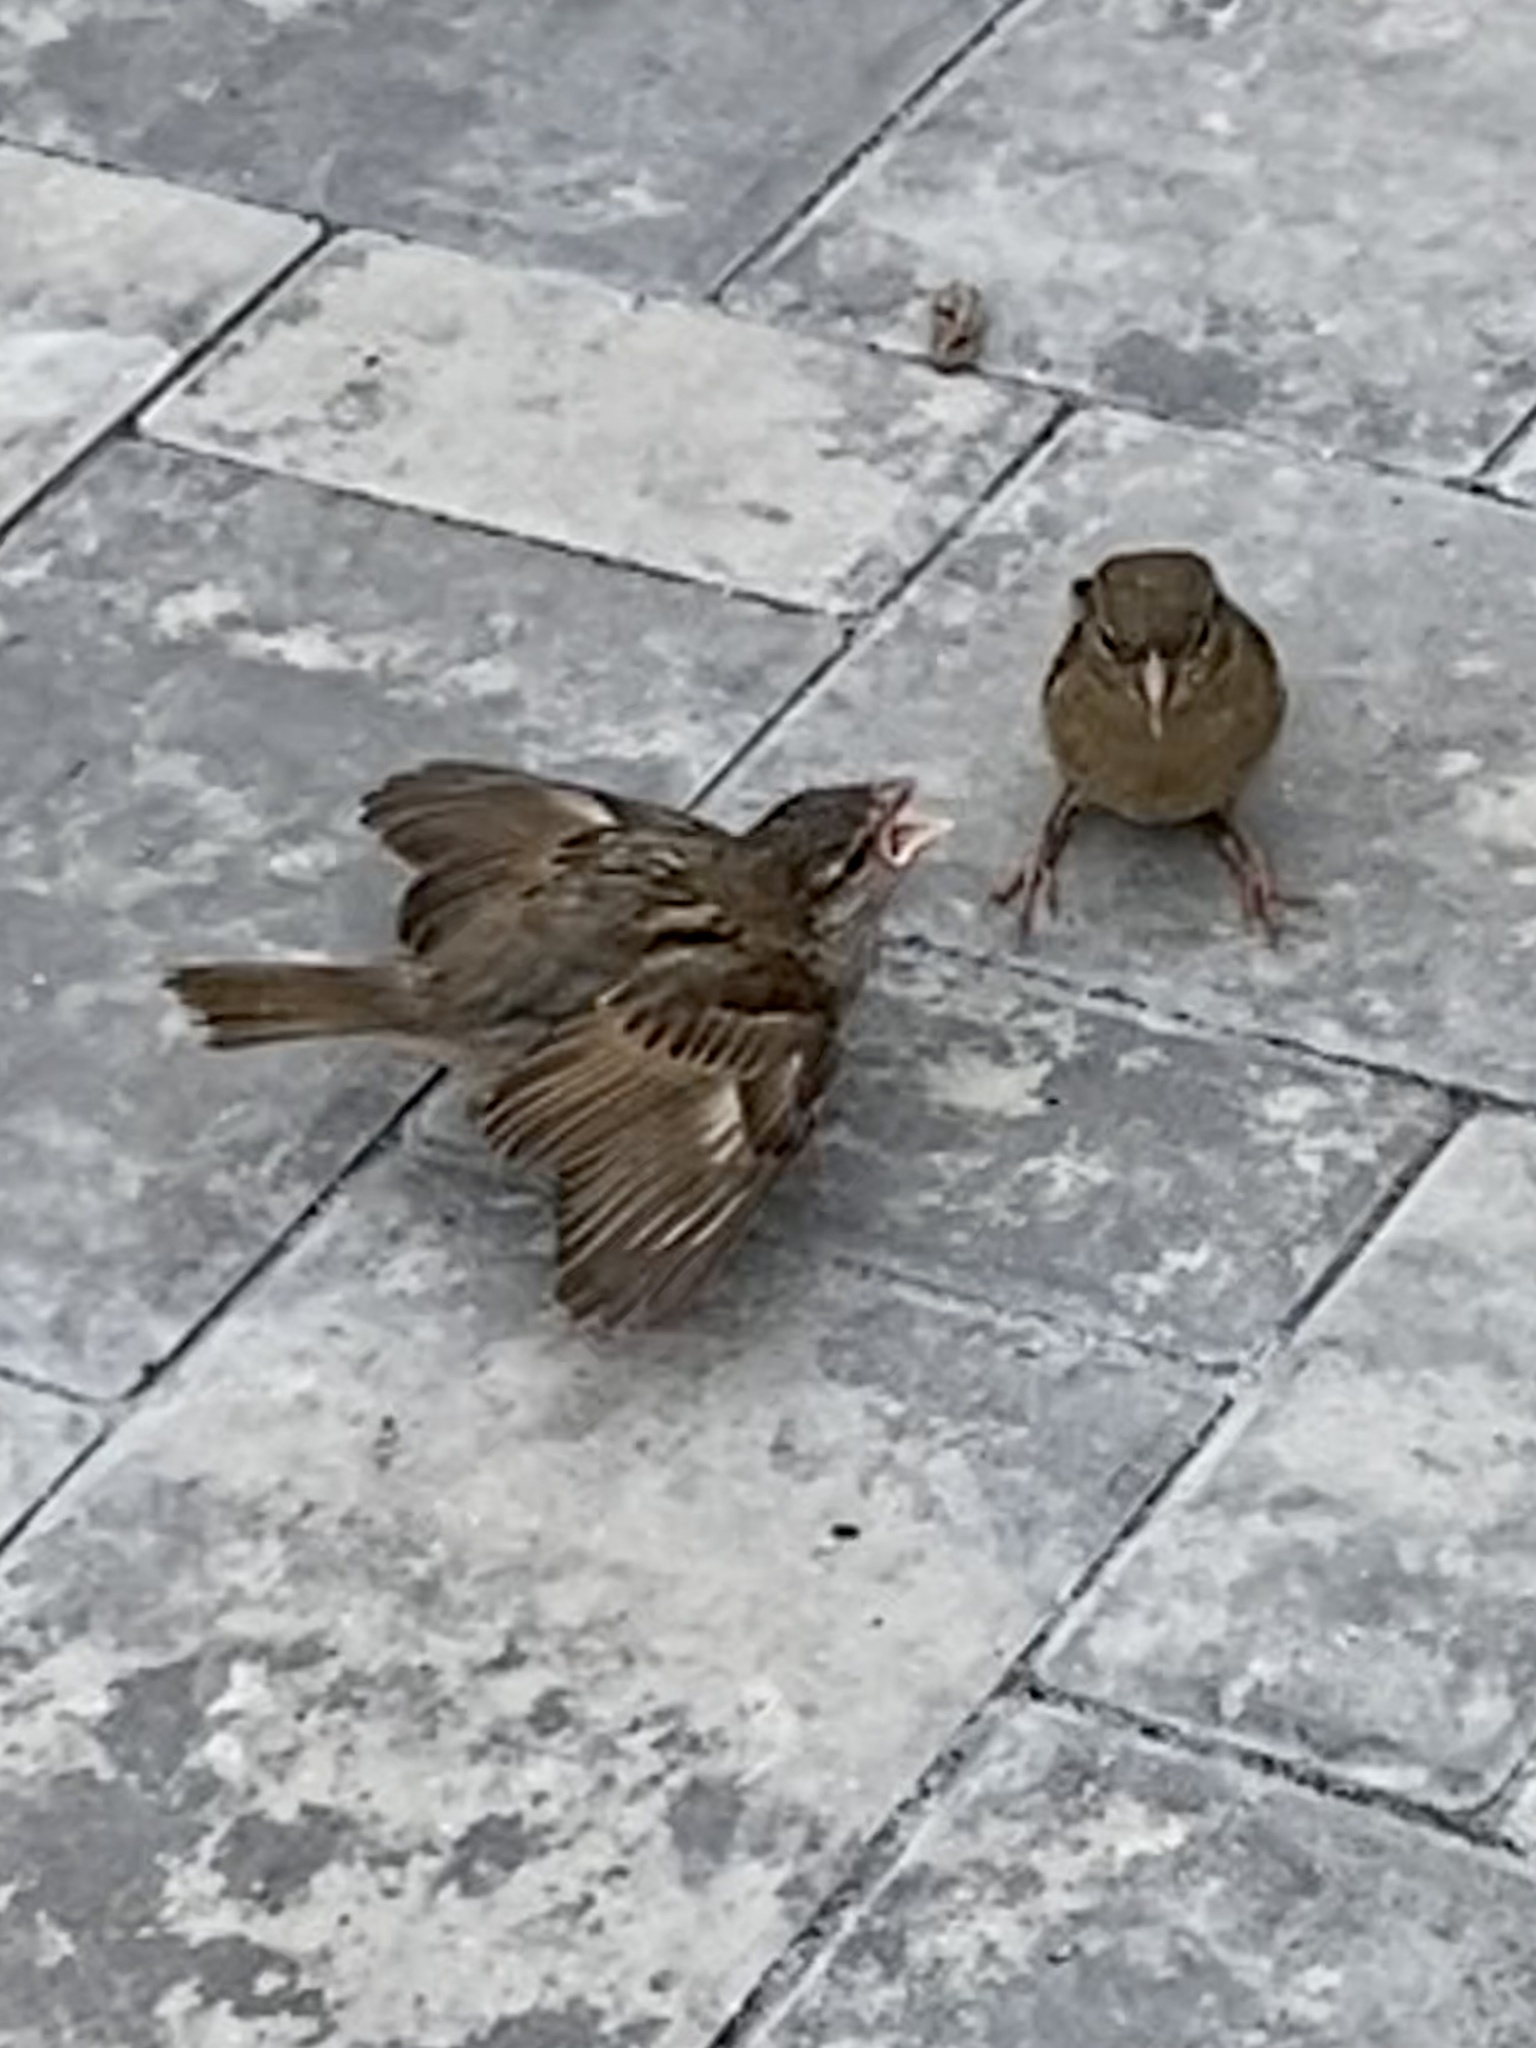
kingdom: Animalia
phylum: Chordata
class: Aves
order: Passeriformes
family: Passeridae
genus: Passer
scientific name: Passer domesticus
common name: House sparrow
